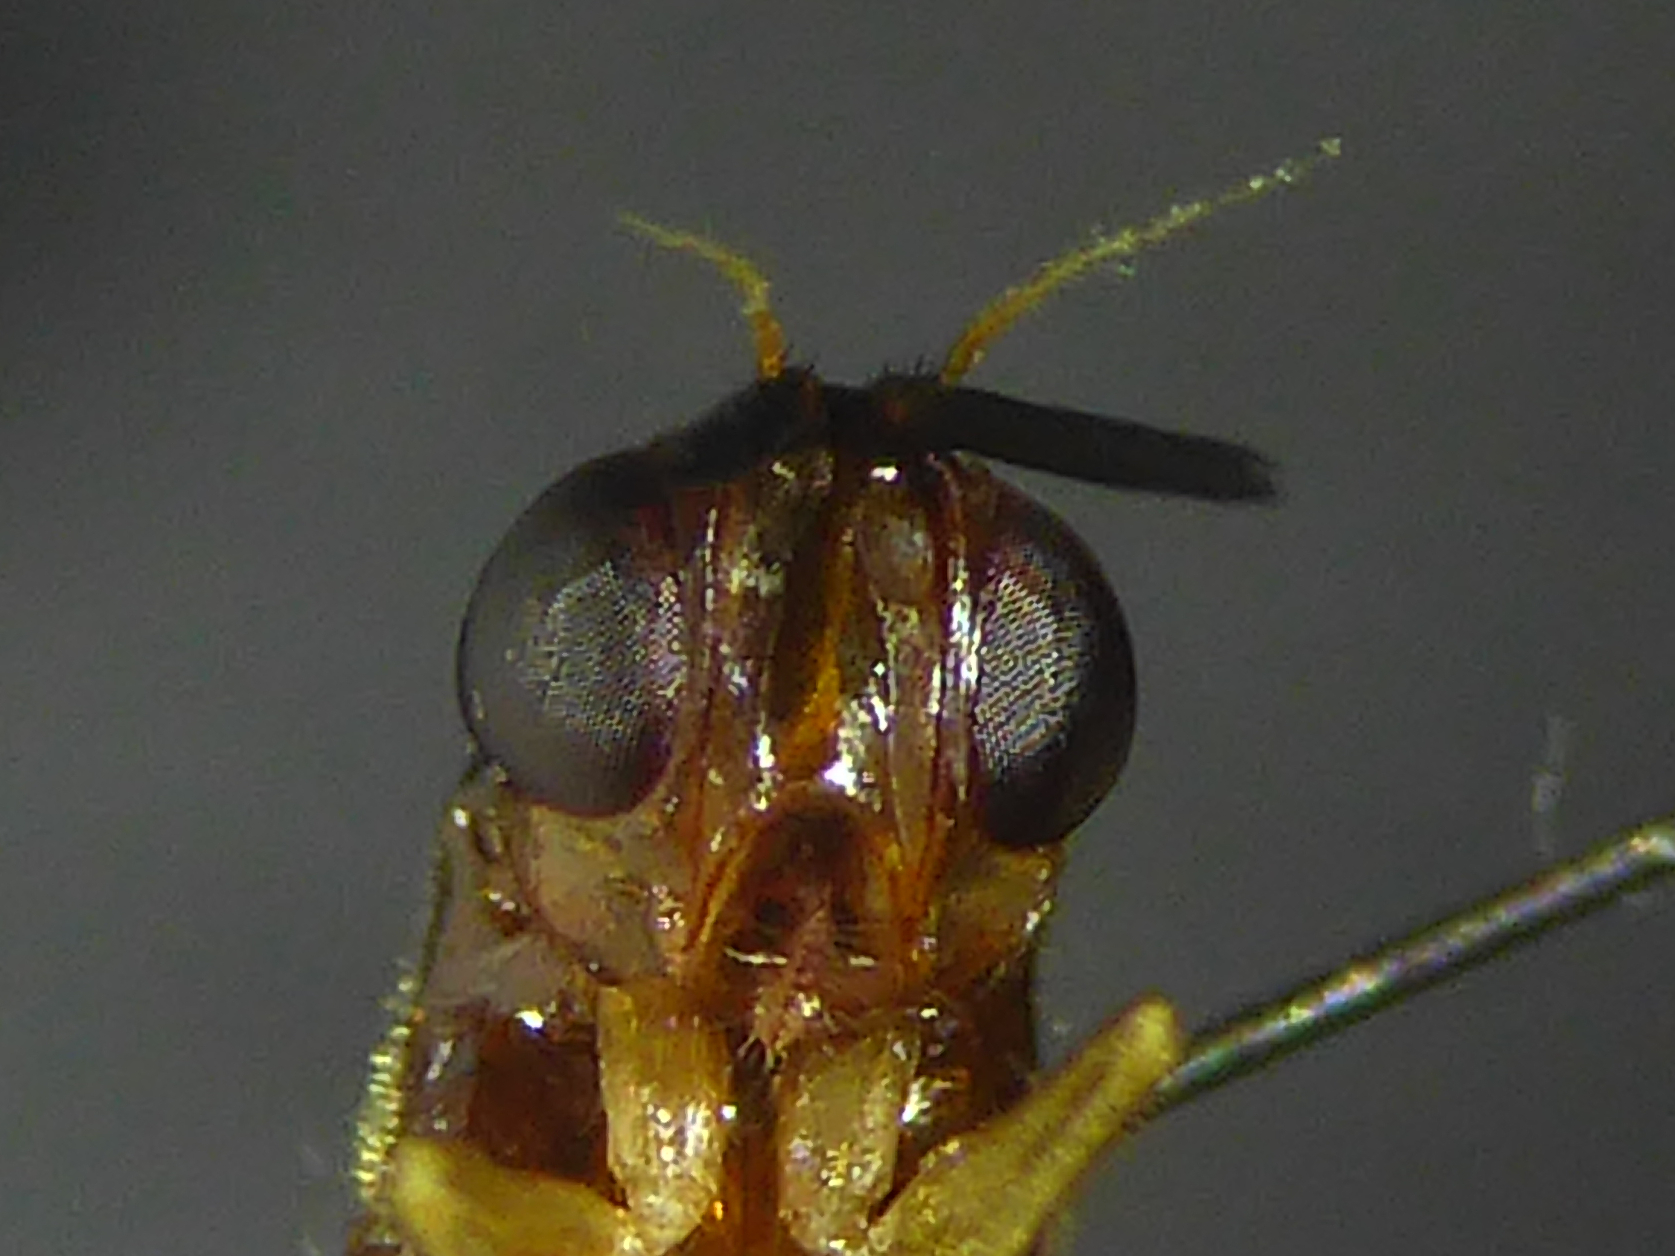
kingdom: Animalia
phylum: Arthropoda
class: Insecta
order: Diptera
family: Psilidae
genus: Loxocera
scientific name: Loxocera albiseta
